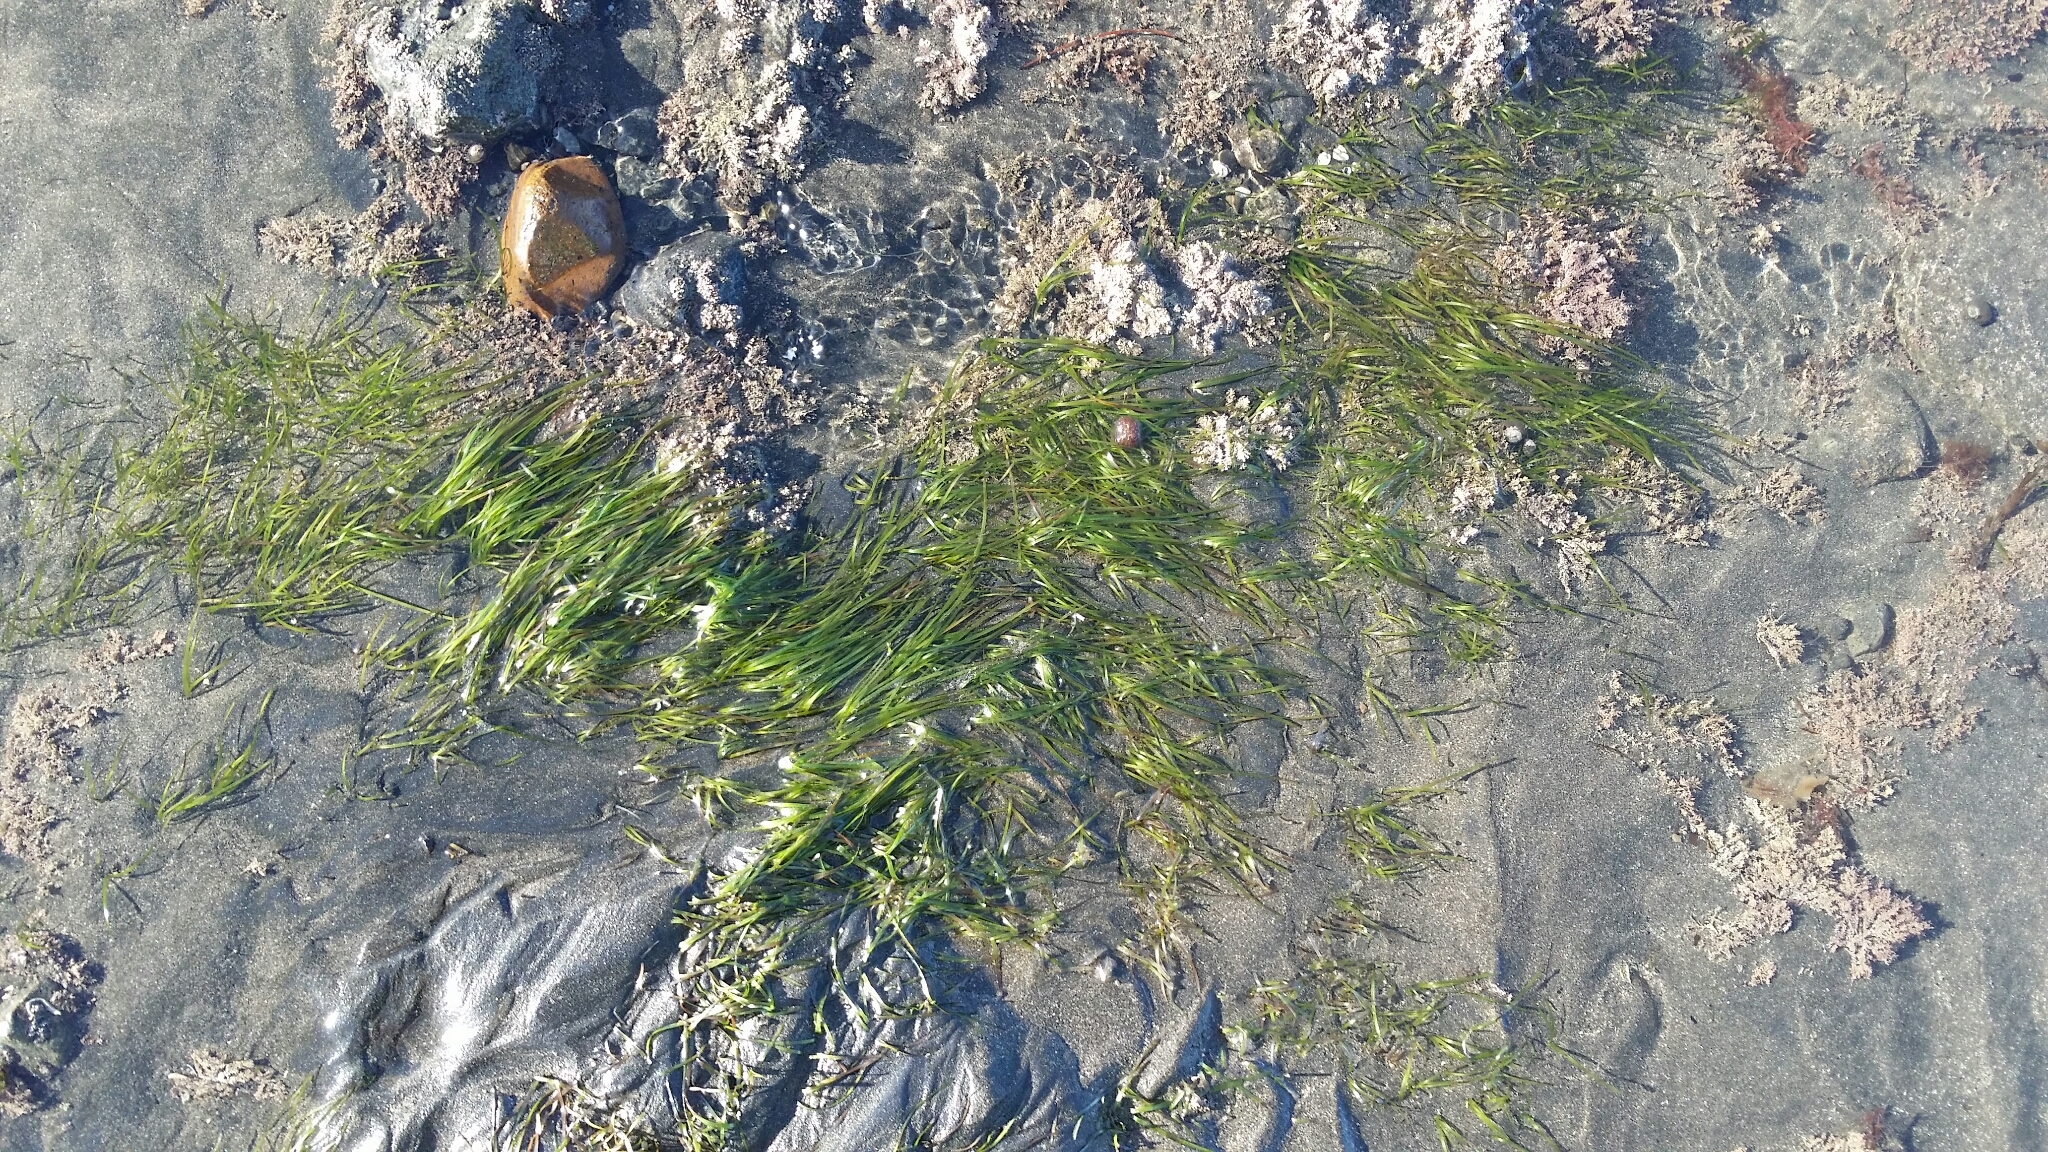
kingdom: Plantae
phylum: Tracheophyta
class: Liliopsida
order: Alismatales
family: Zosteraceae
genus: Zostera
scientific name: Zostera muelleri
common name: Species code: zc
